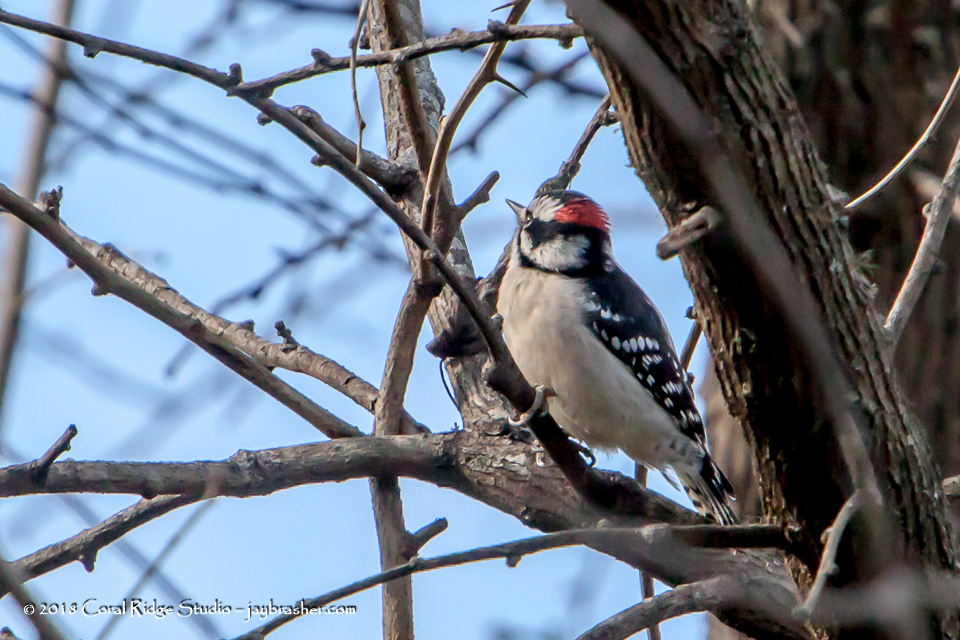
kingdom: Animalia
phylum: Chordata
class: Aves
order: Piciformes
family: Picidae
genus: Dryobates
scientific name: Dryobates pubescens
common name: Downy woodpecker
